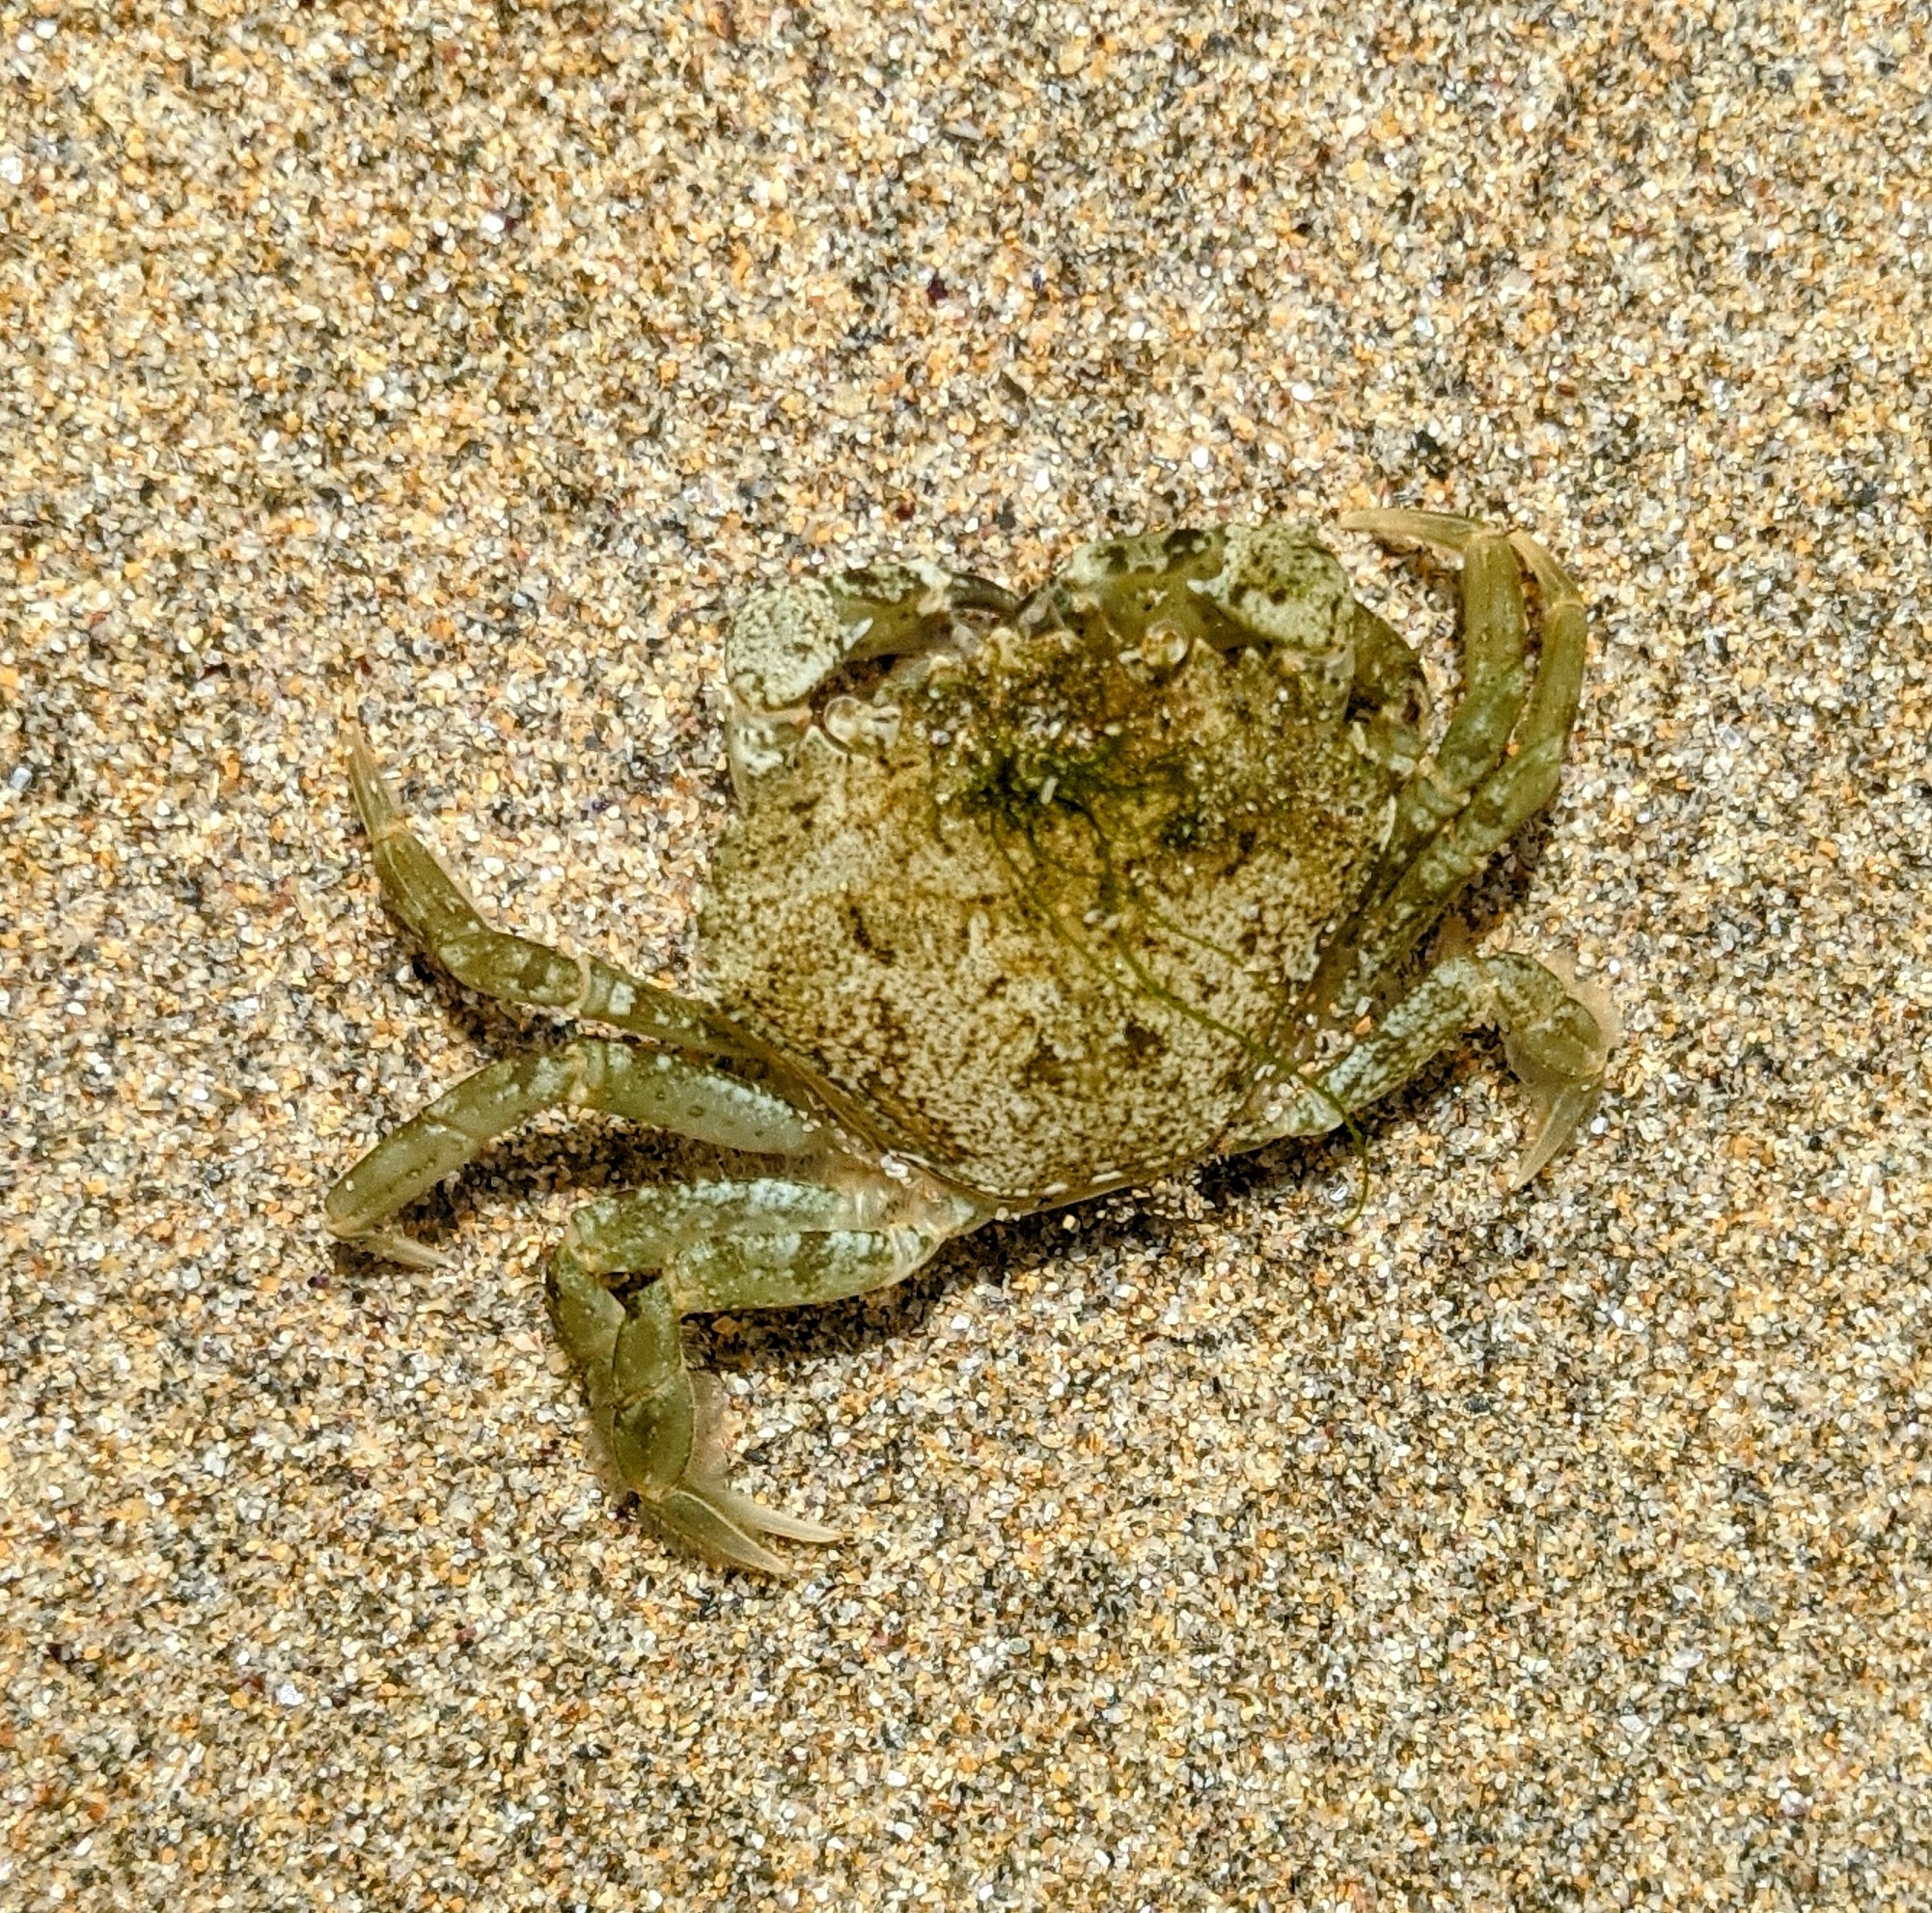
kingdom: Animalia
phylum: Arthropoda
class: Malacostraca
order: Decapoda
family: Carcinidae
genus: Carcinus
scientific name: Carcinus maenas
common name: European green crab
